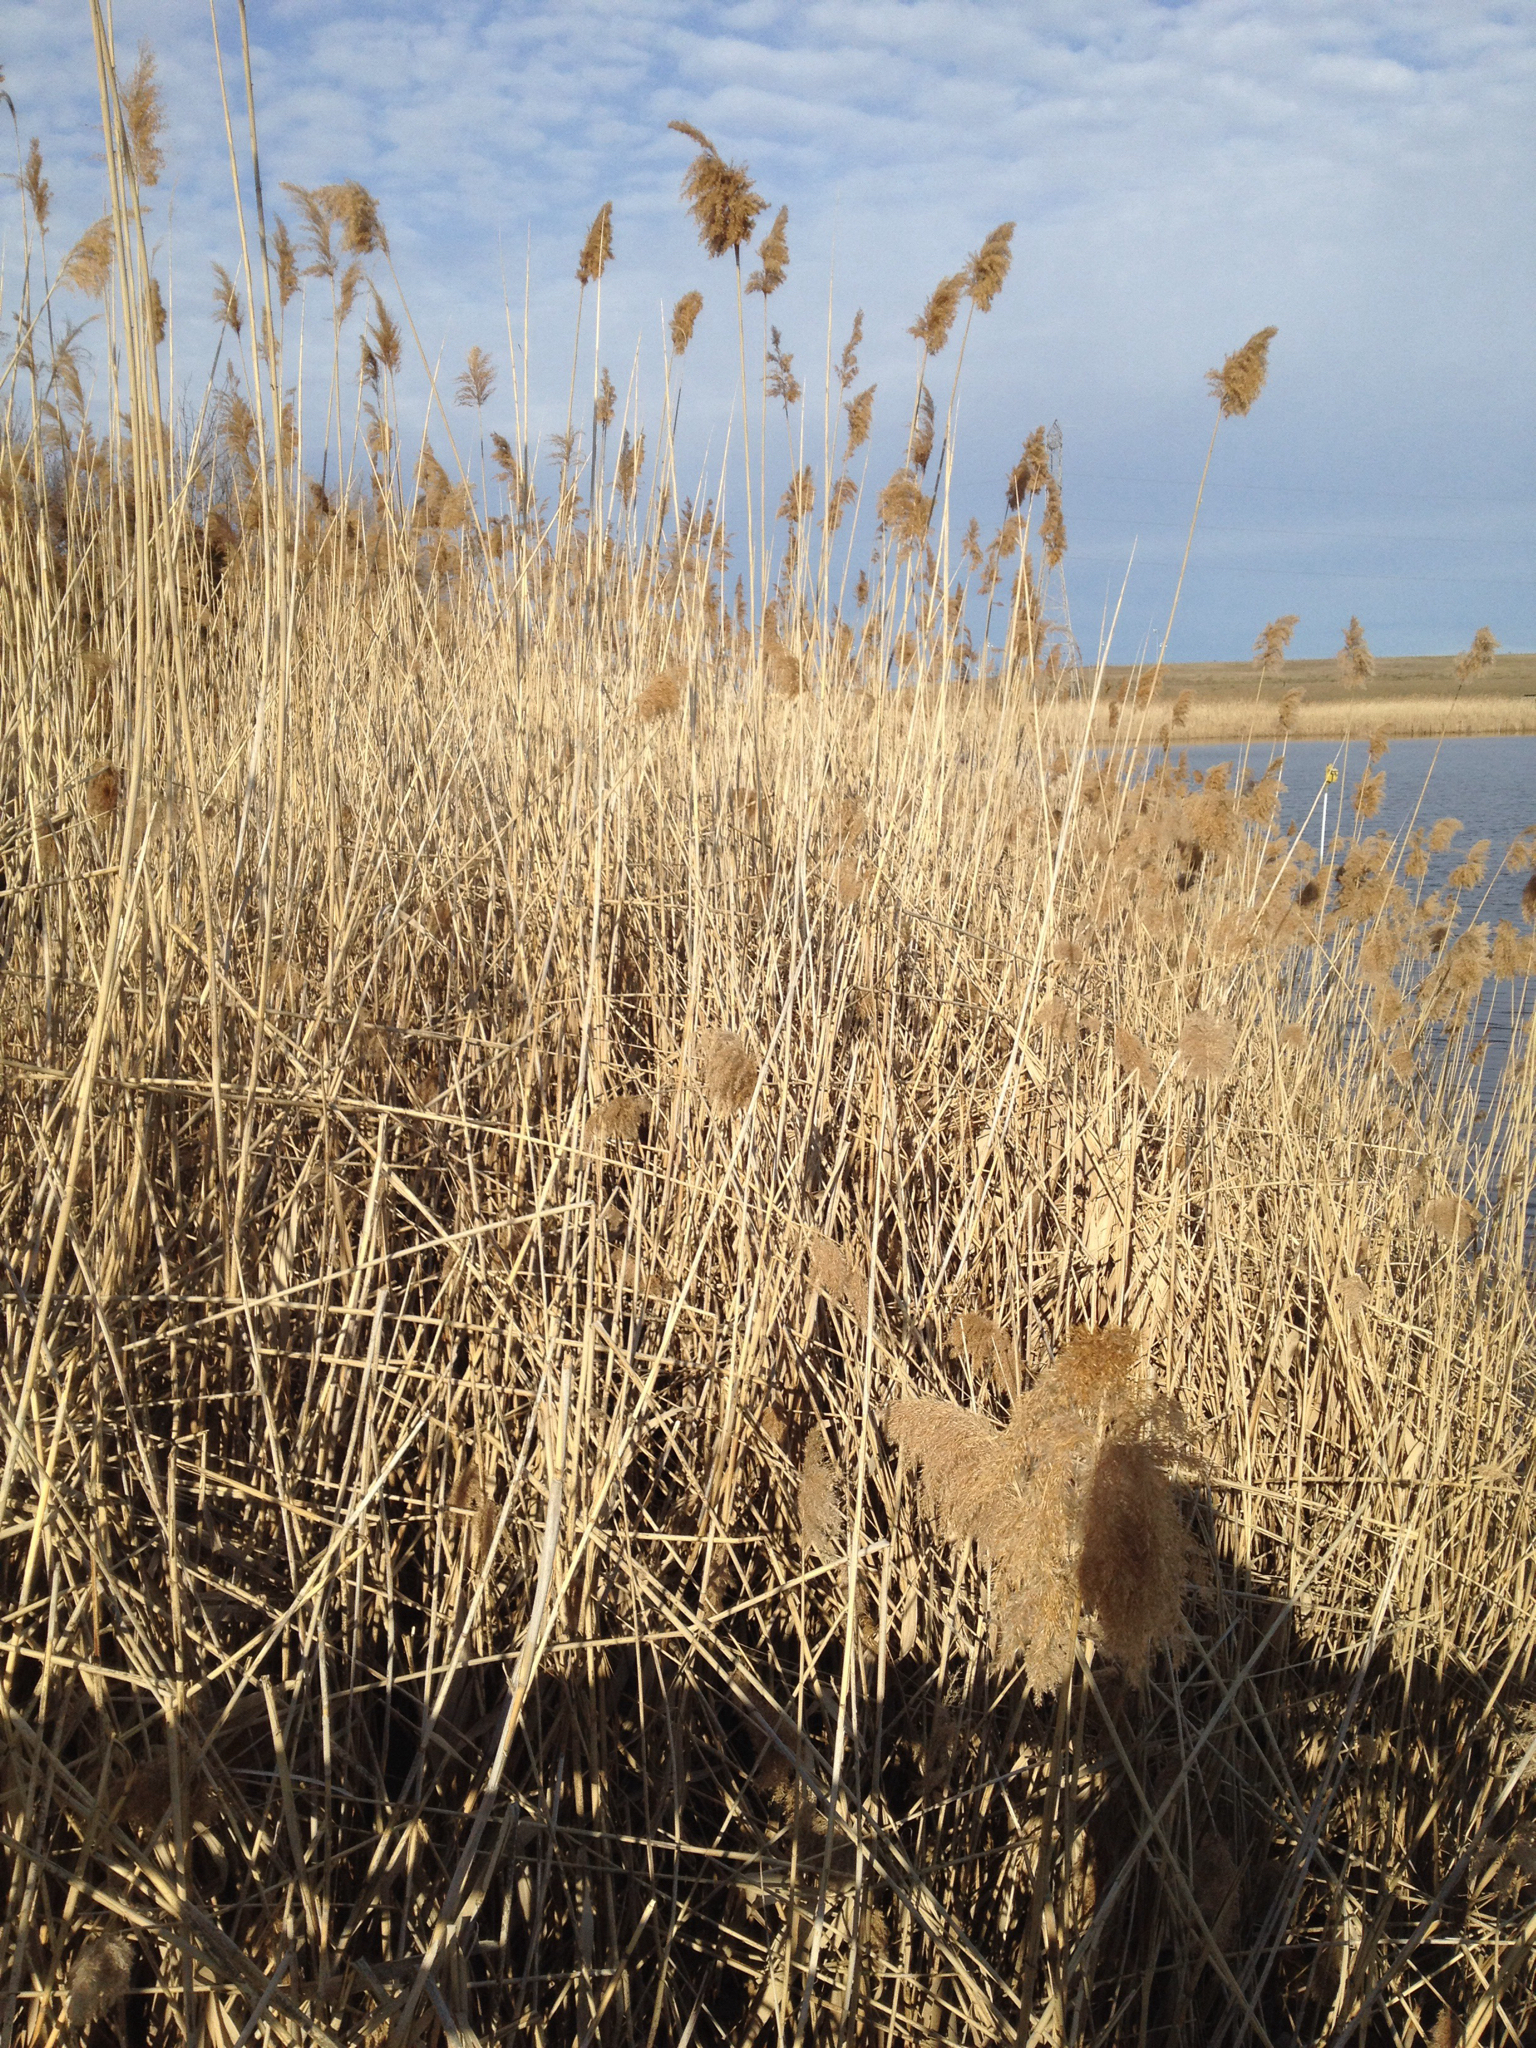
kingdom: Plantae
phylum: Tracheophyta
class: Liliopsida
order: Poales
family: Poaceae
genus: Phragmites
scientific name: Phragmites australis
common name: Common reed
